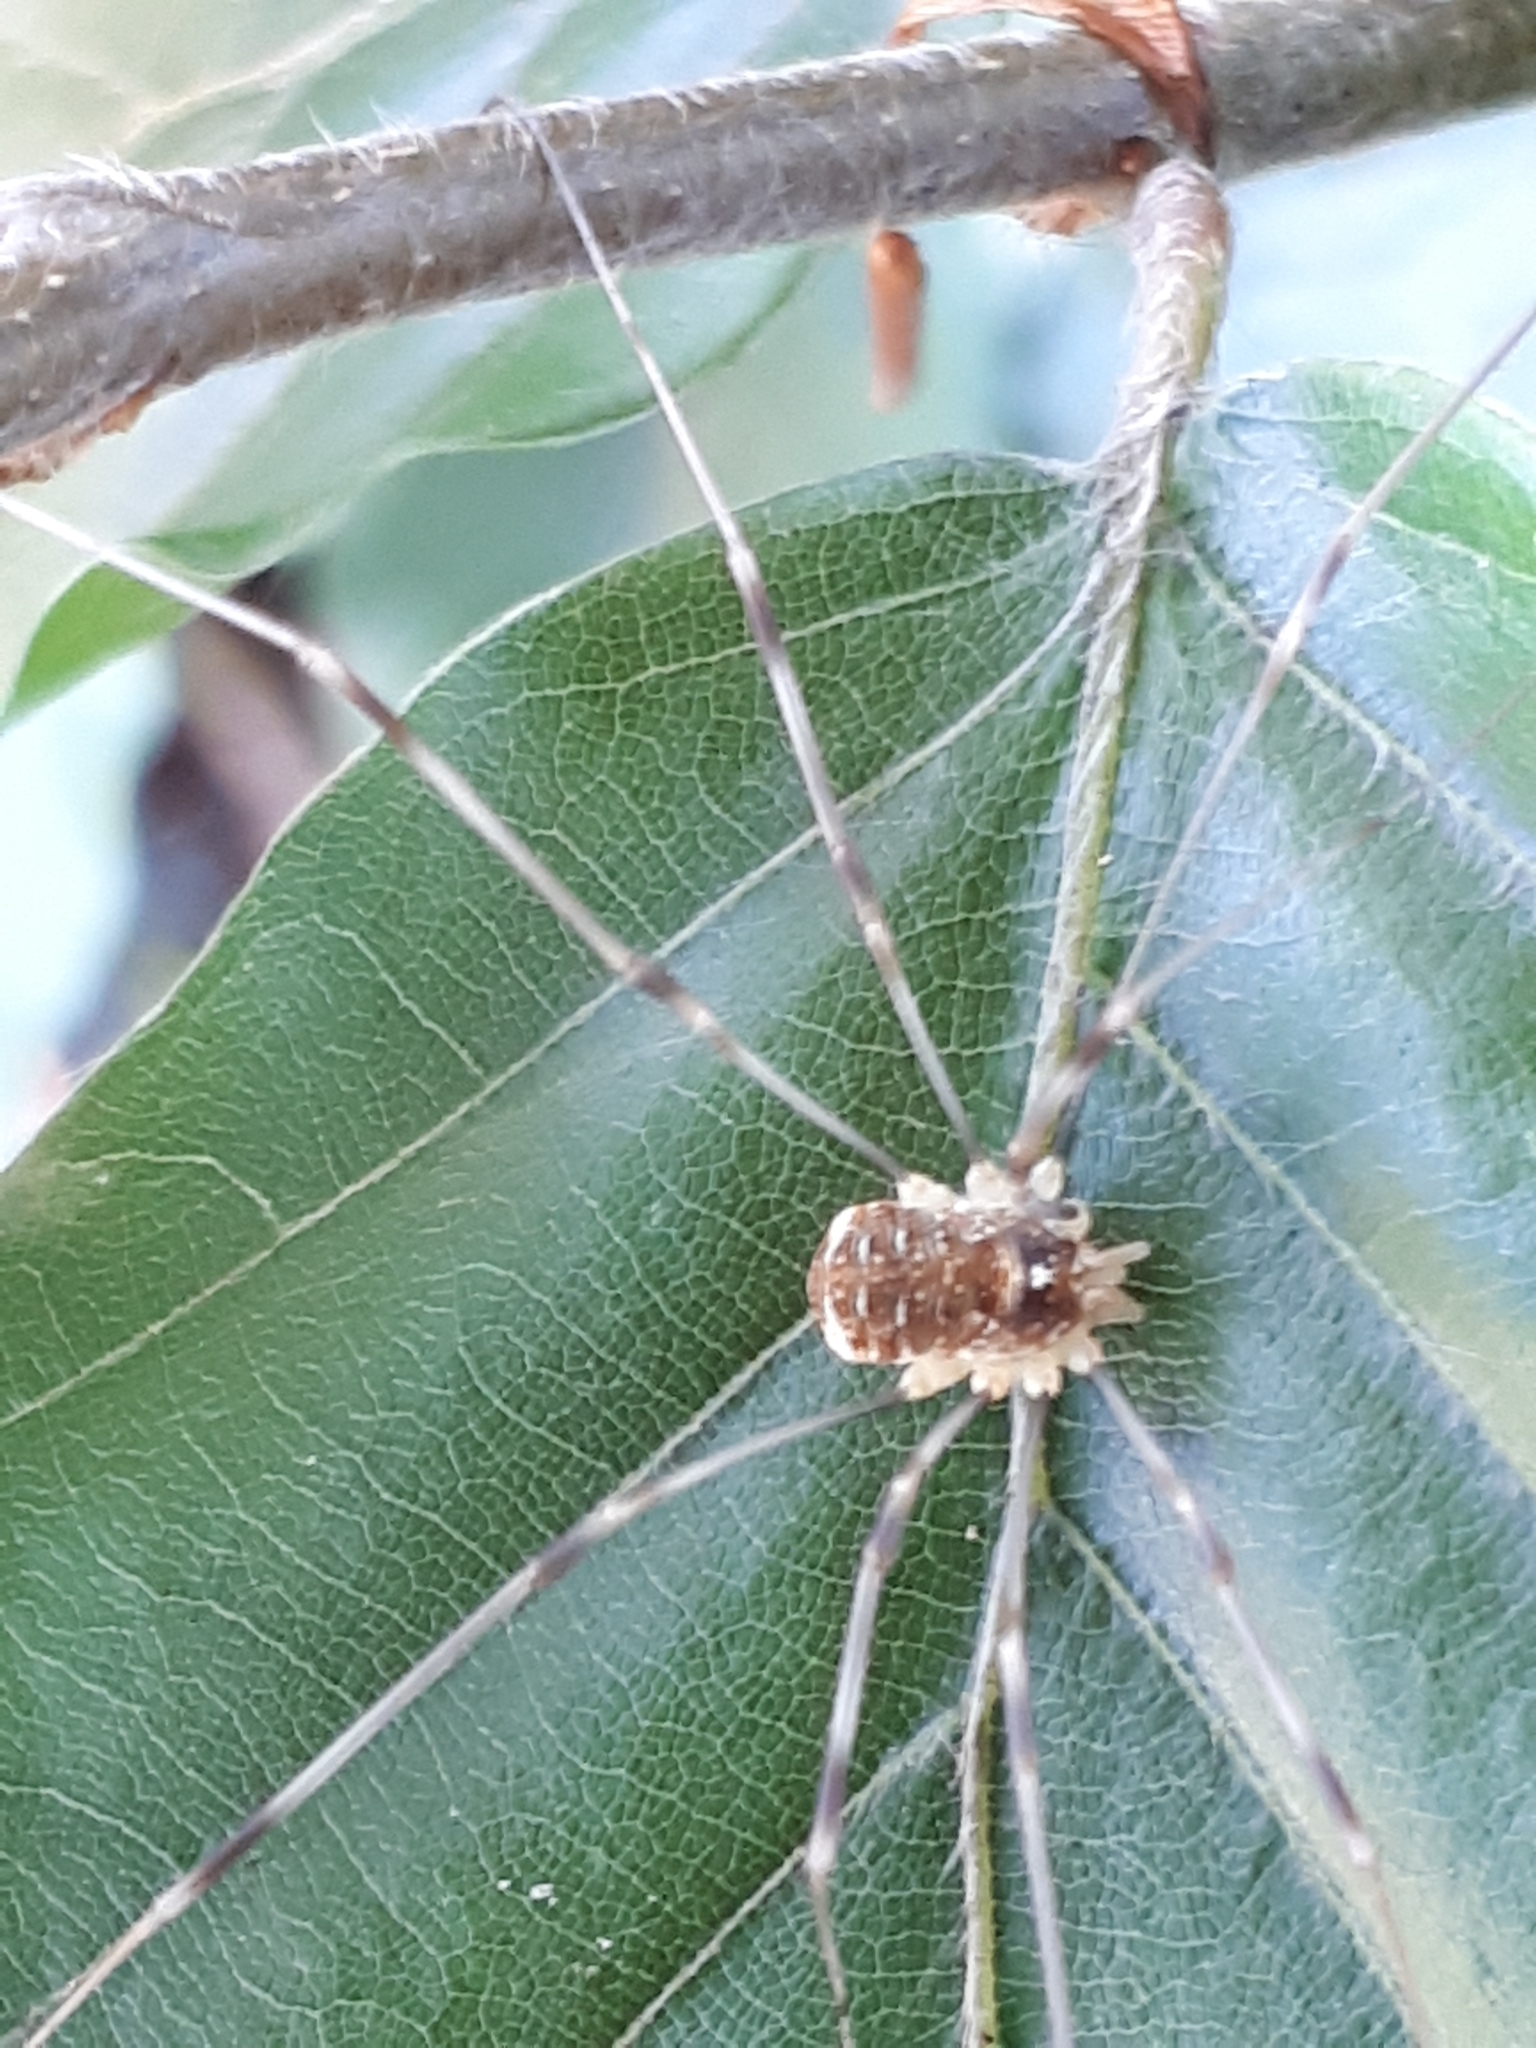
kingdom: Animalia
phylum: Arthropoda
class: Arachnida
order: Opiliones
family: Phalangiidae
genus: Opilio
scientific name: Opilio canestrinii
